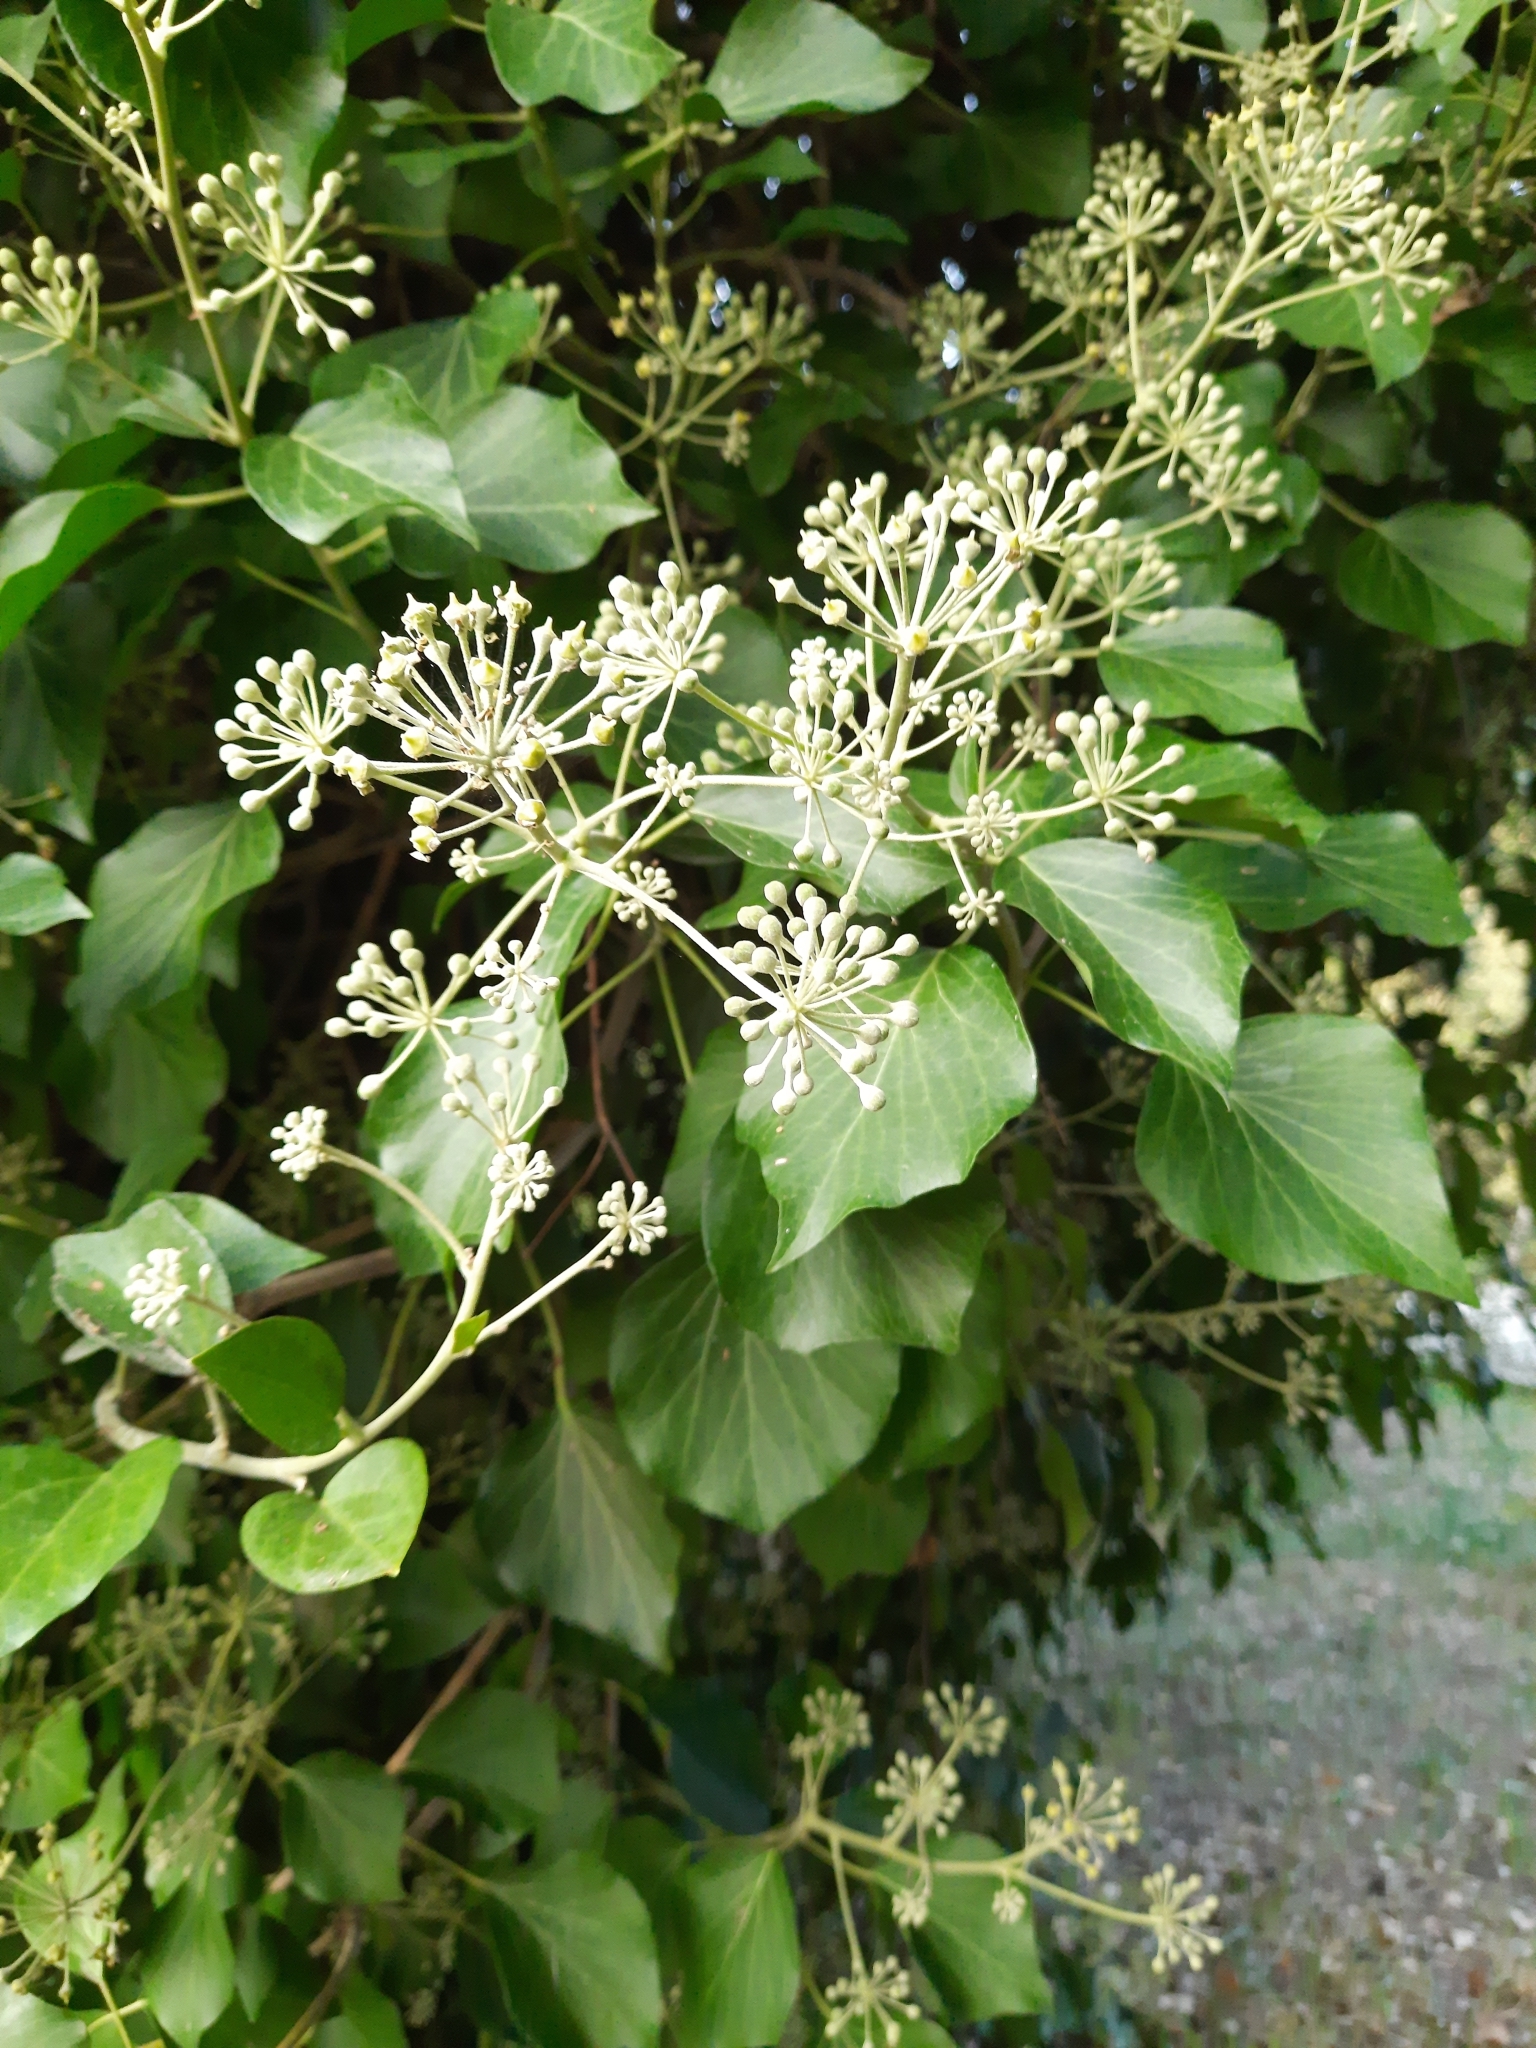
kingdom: Plantae
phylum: Tracheophyta
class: Magnoliopsida
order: Apiales
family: Araliaceae
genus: Hedera
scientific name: Hedera colchica
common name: Persian ivy
